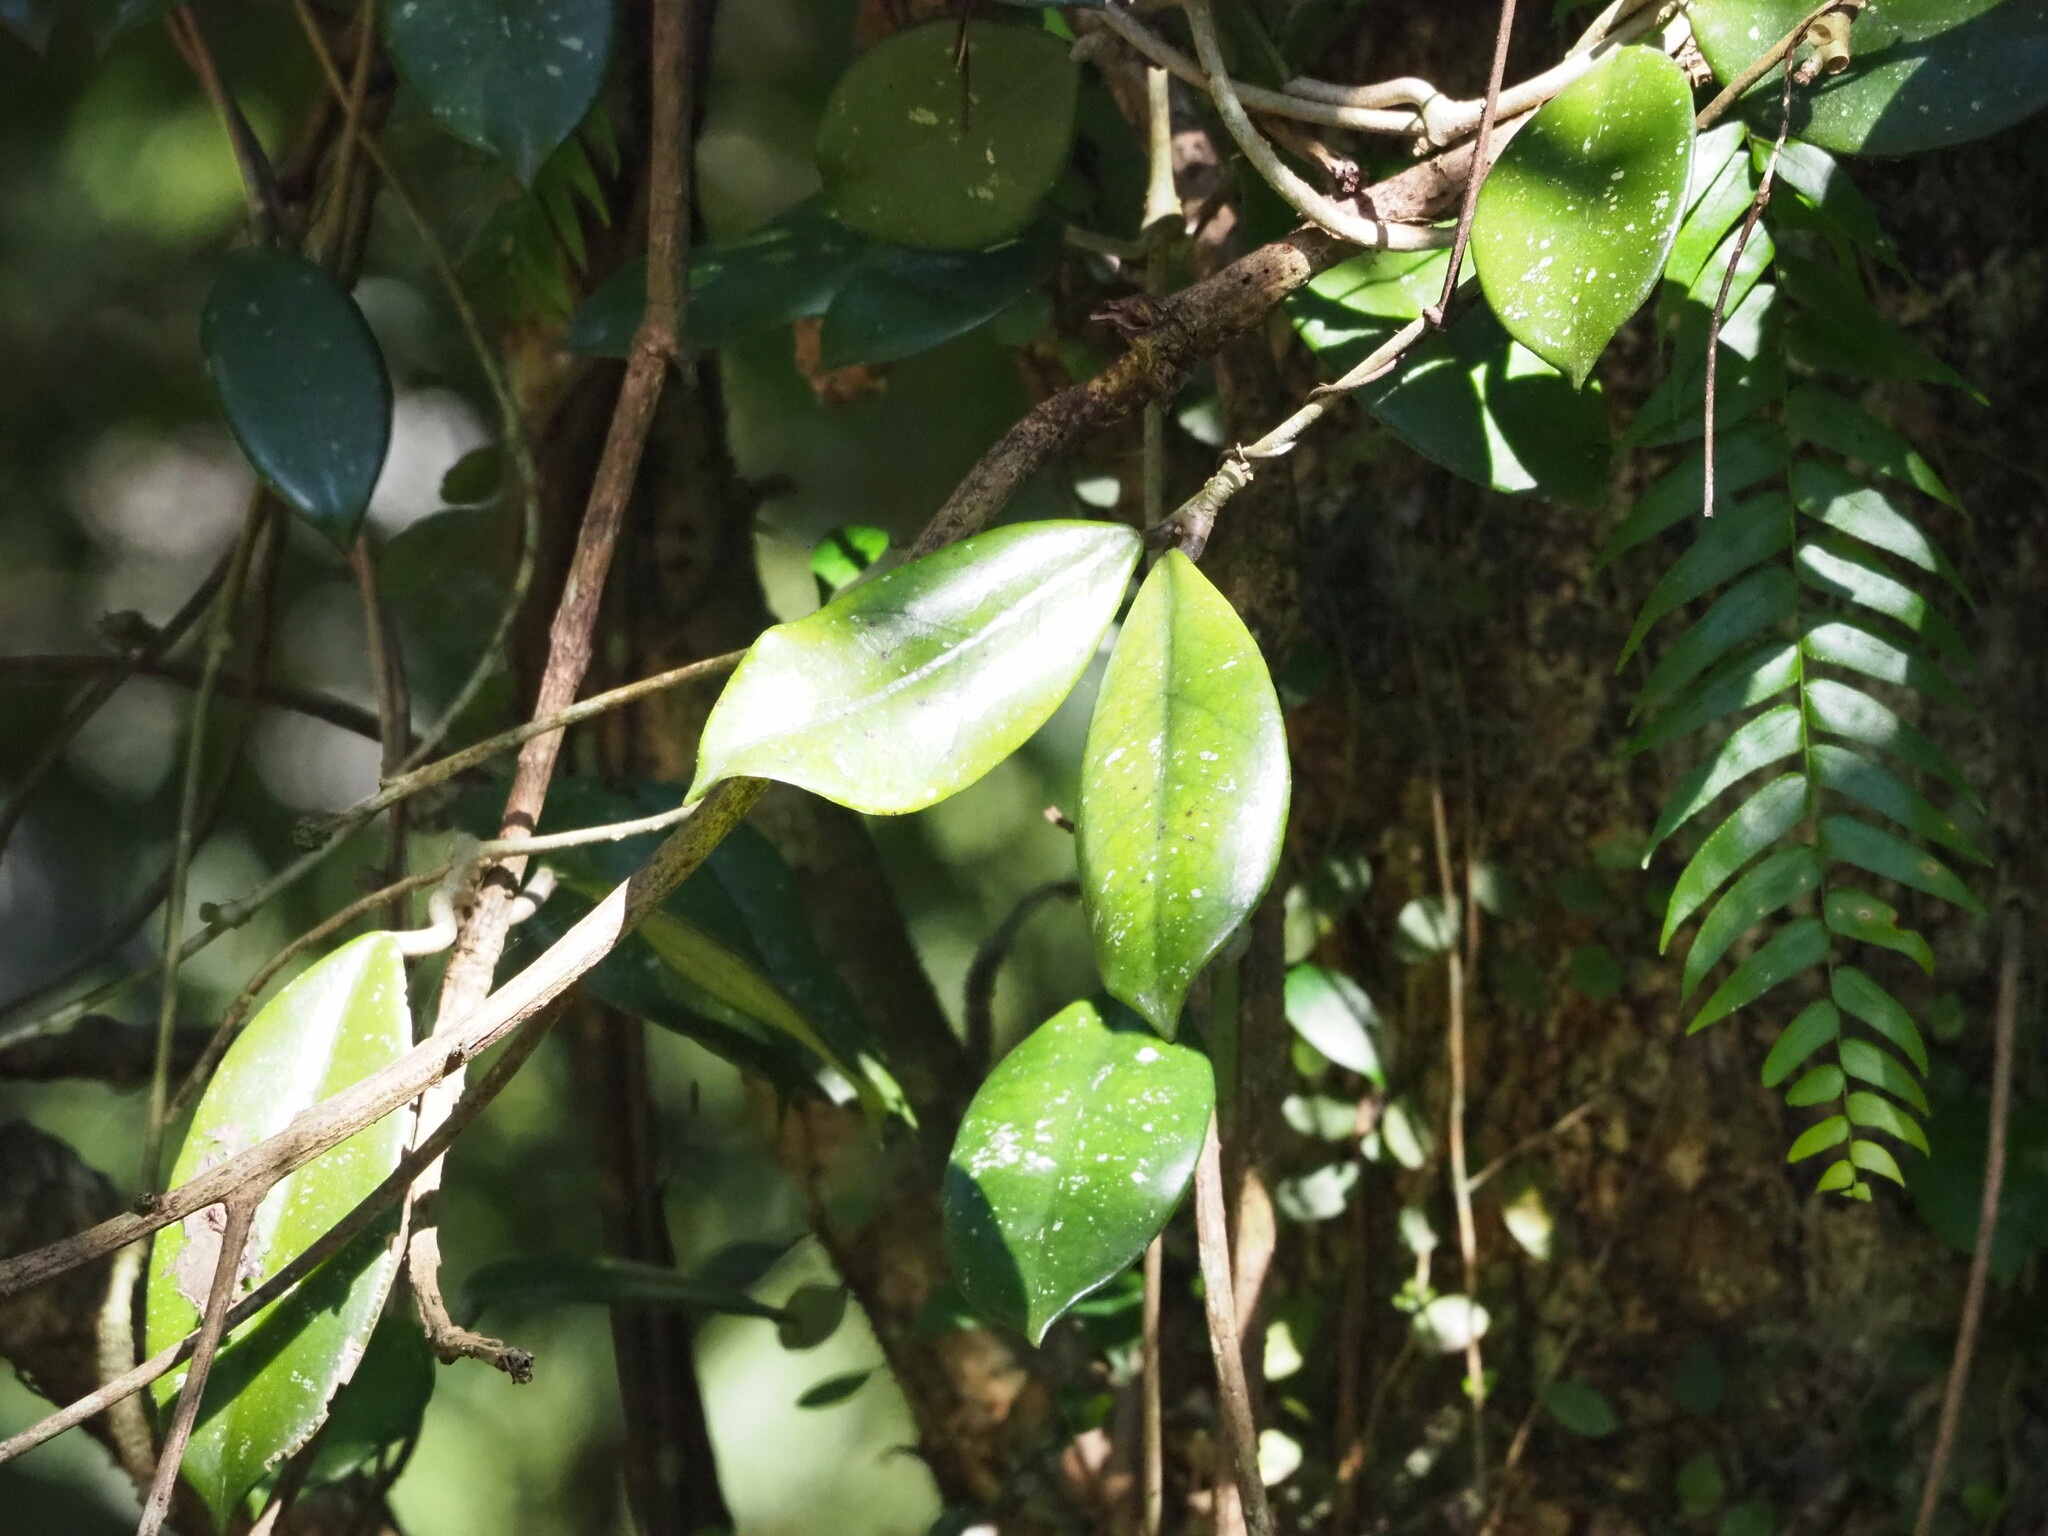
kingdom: Plantae
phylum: Tracheophyta
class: Magnoliopsida
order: Gentianales
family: Apocynaceae
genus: Hoya
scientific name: Hoya carnosa
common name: Honeyplant
